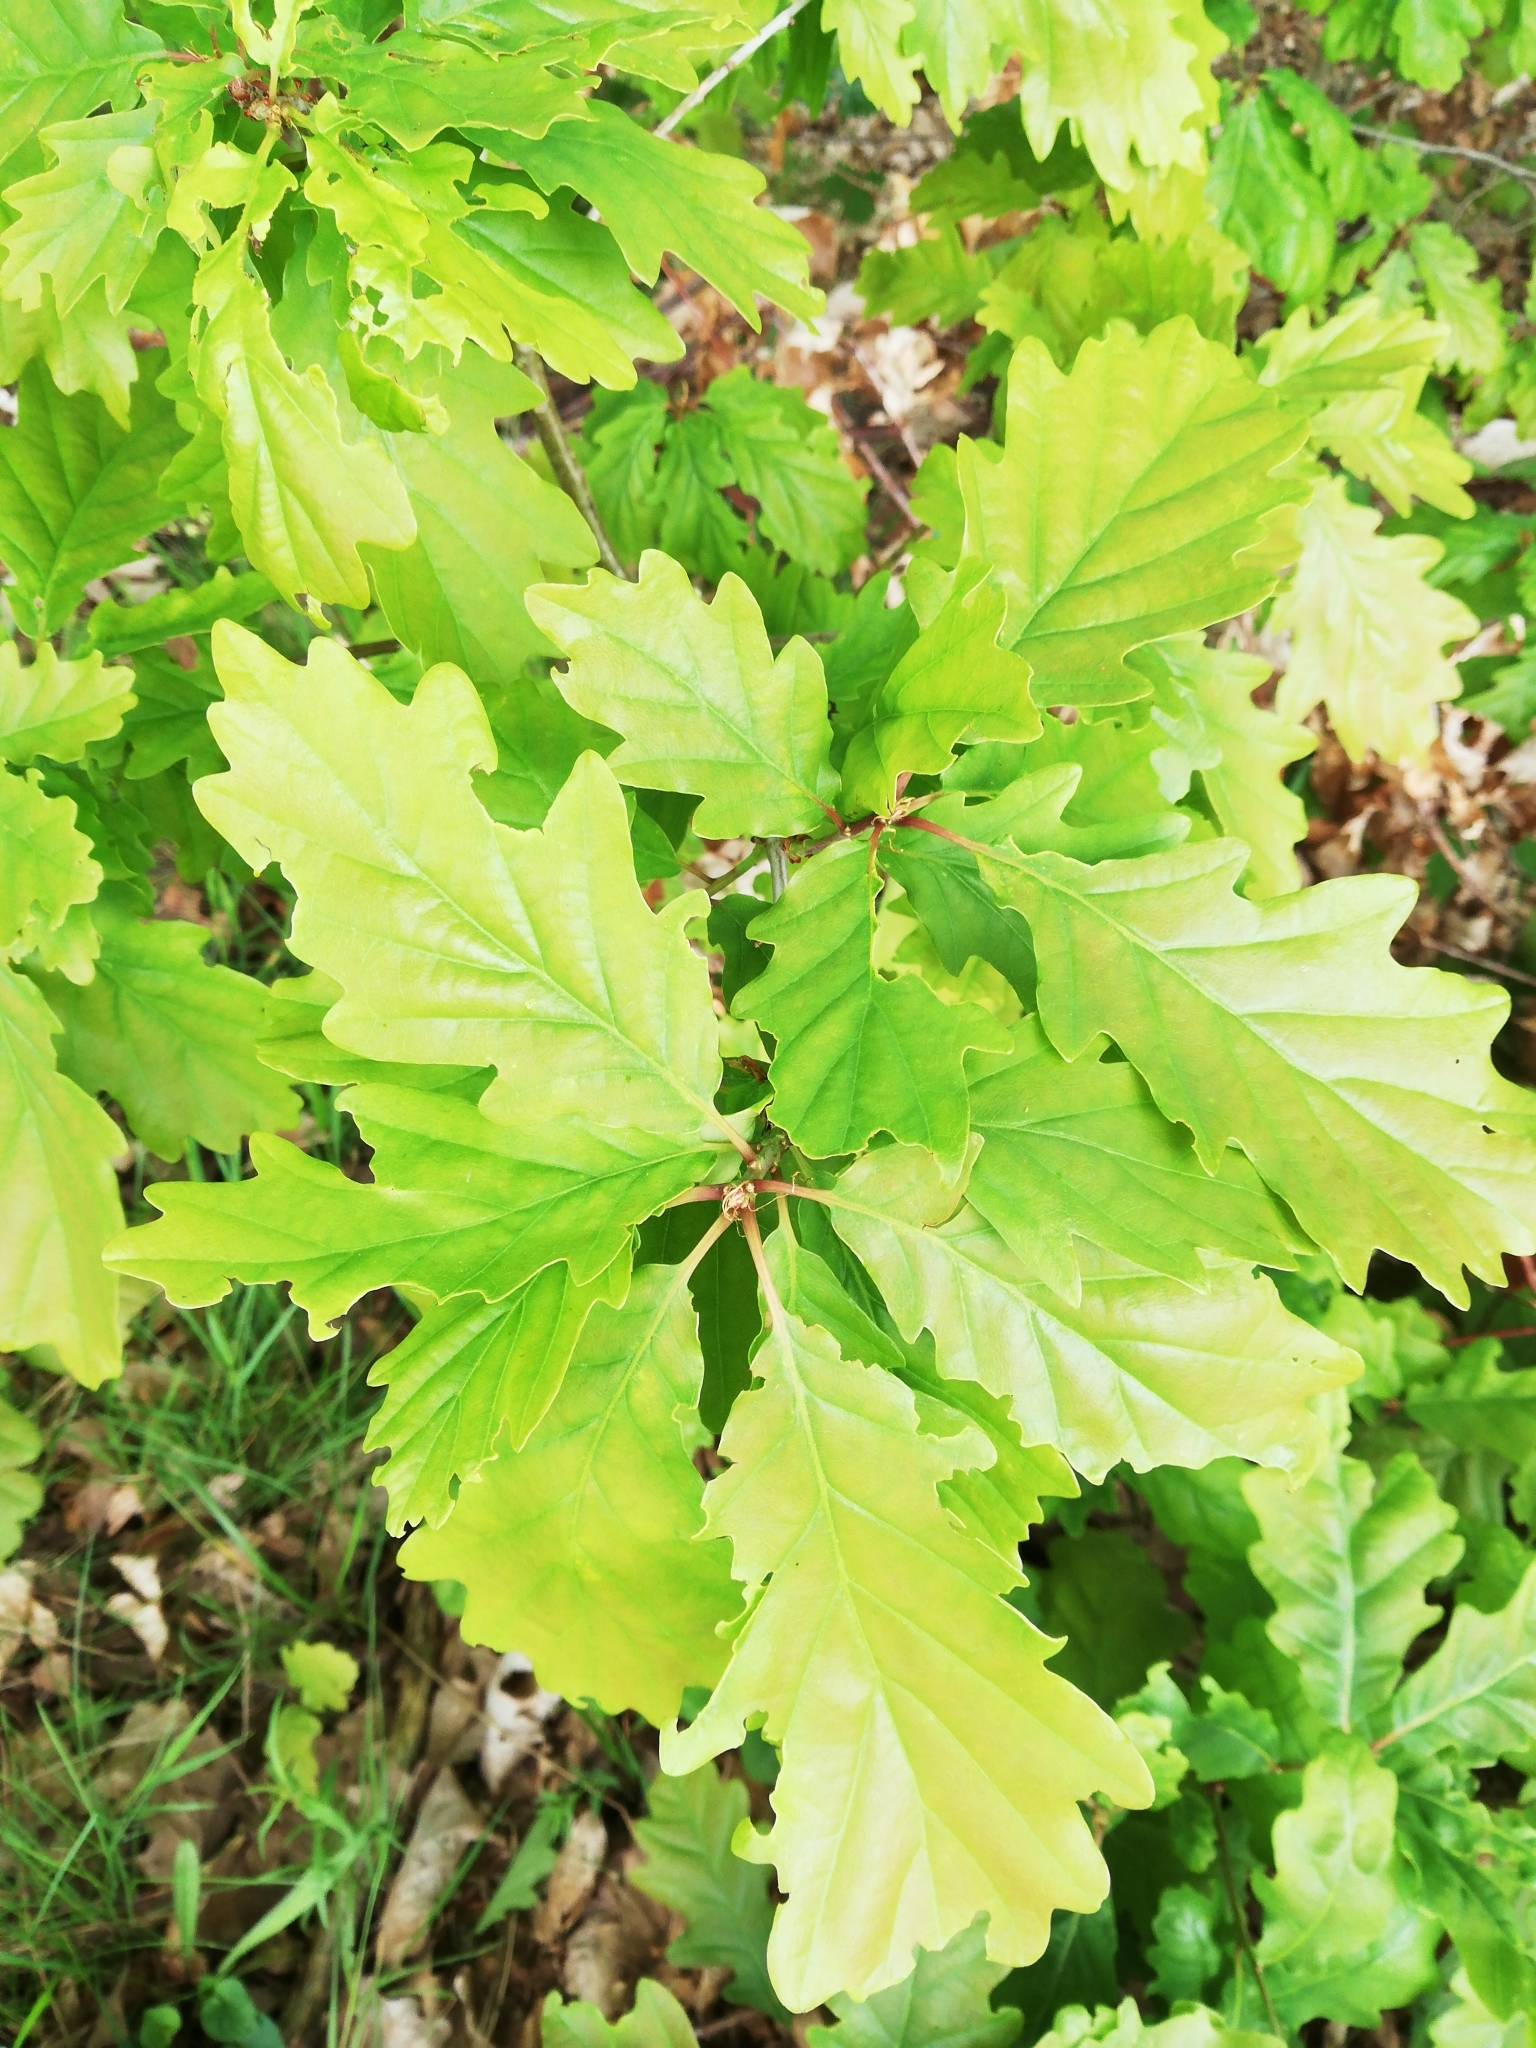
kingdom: Plantae
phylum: Tracheophyta
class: Magnoliopsida
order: Fagales
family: Fagaceae
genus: Quercus
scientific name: Quercus petraea
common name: Sessile oak
